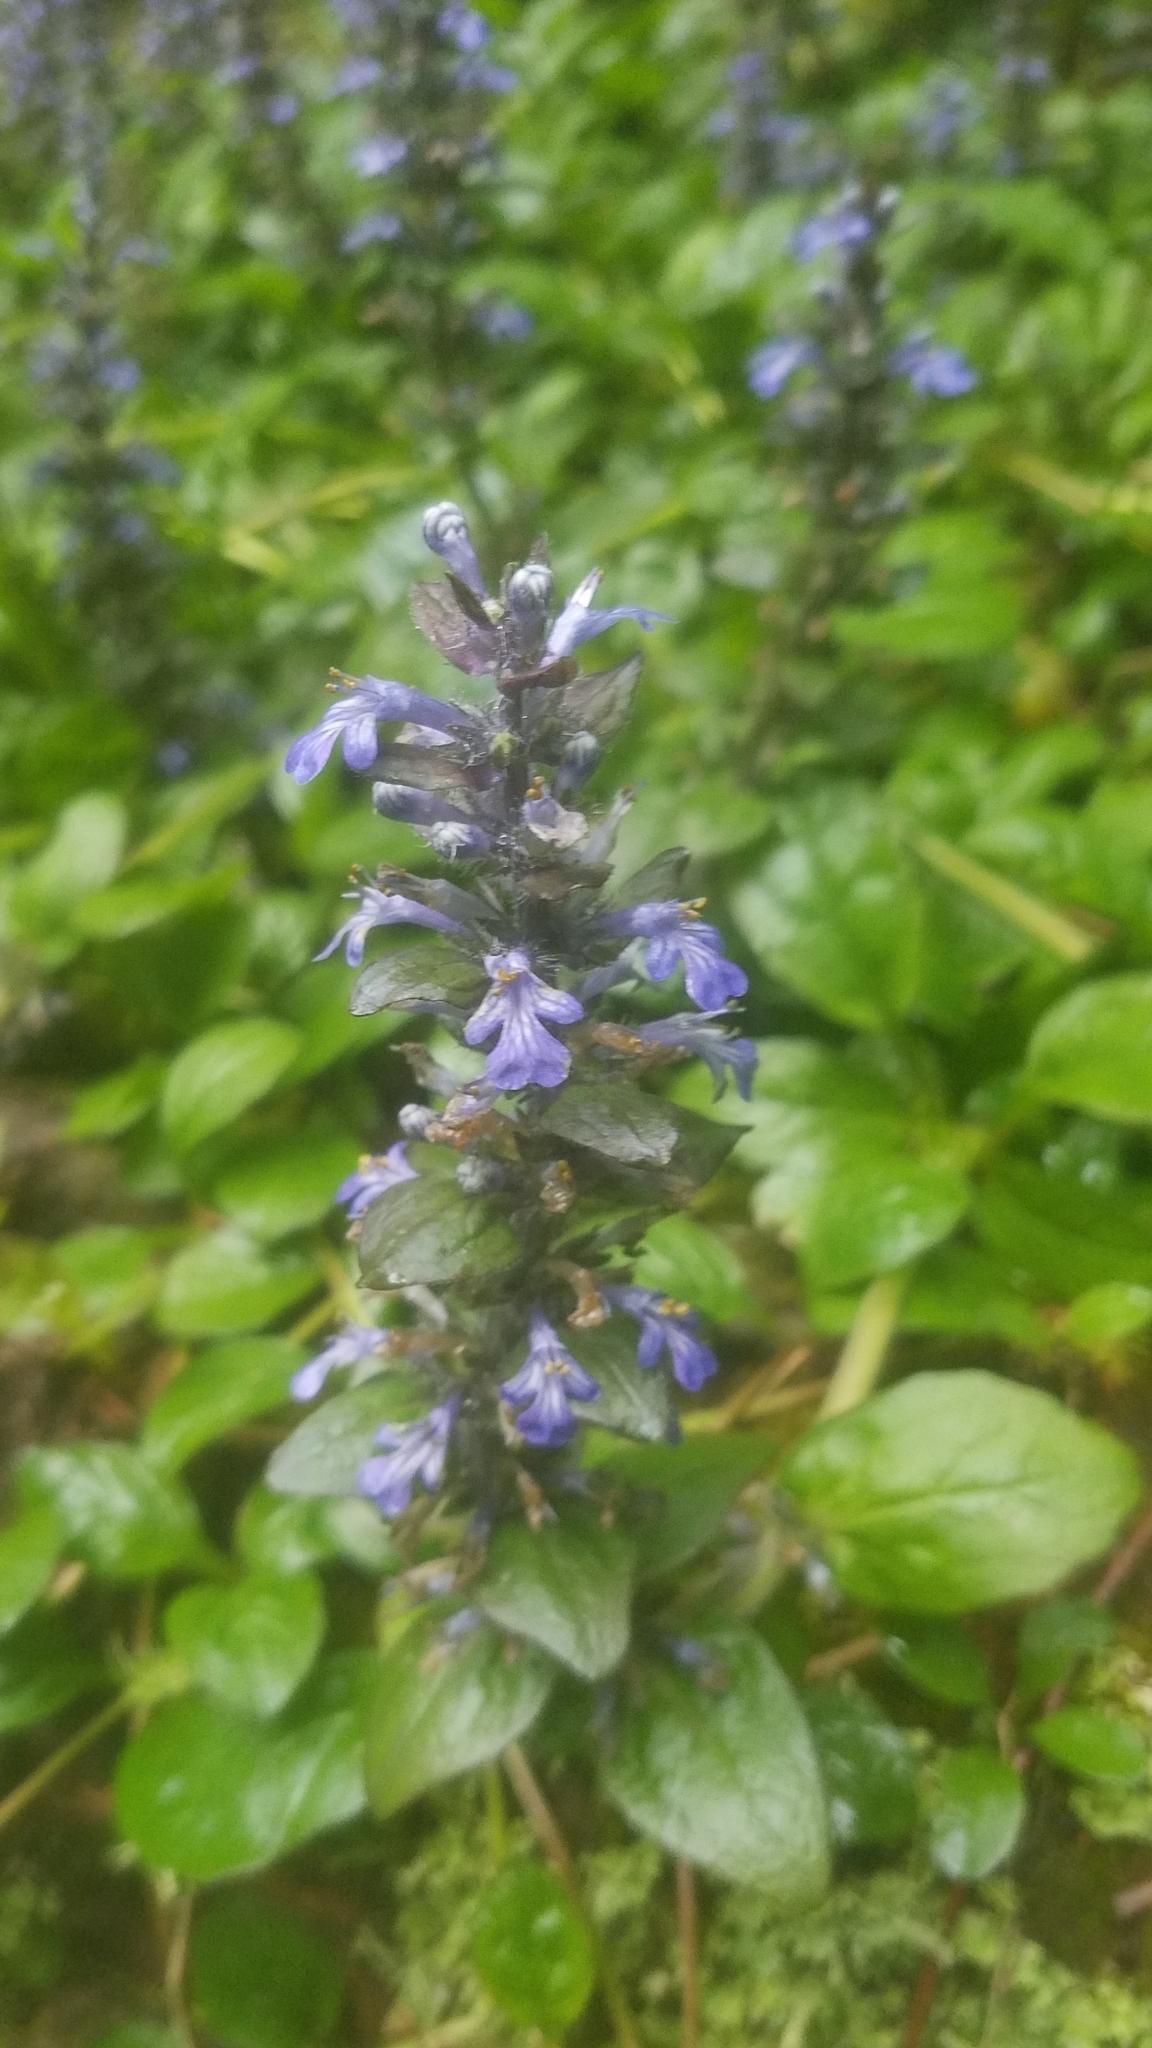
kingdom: Plantae
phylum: Tracheophyta
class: Magnoliopsida
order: Lamiales
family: Lamiaceae
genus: Ajuga
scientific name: Ajuga reptans
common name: Bugle
